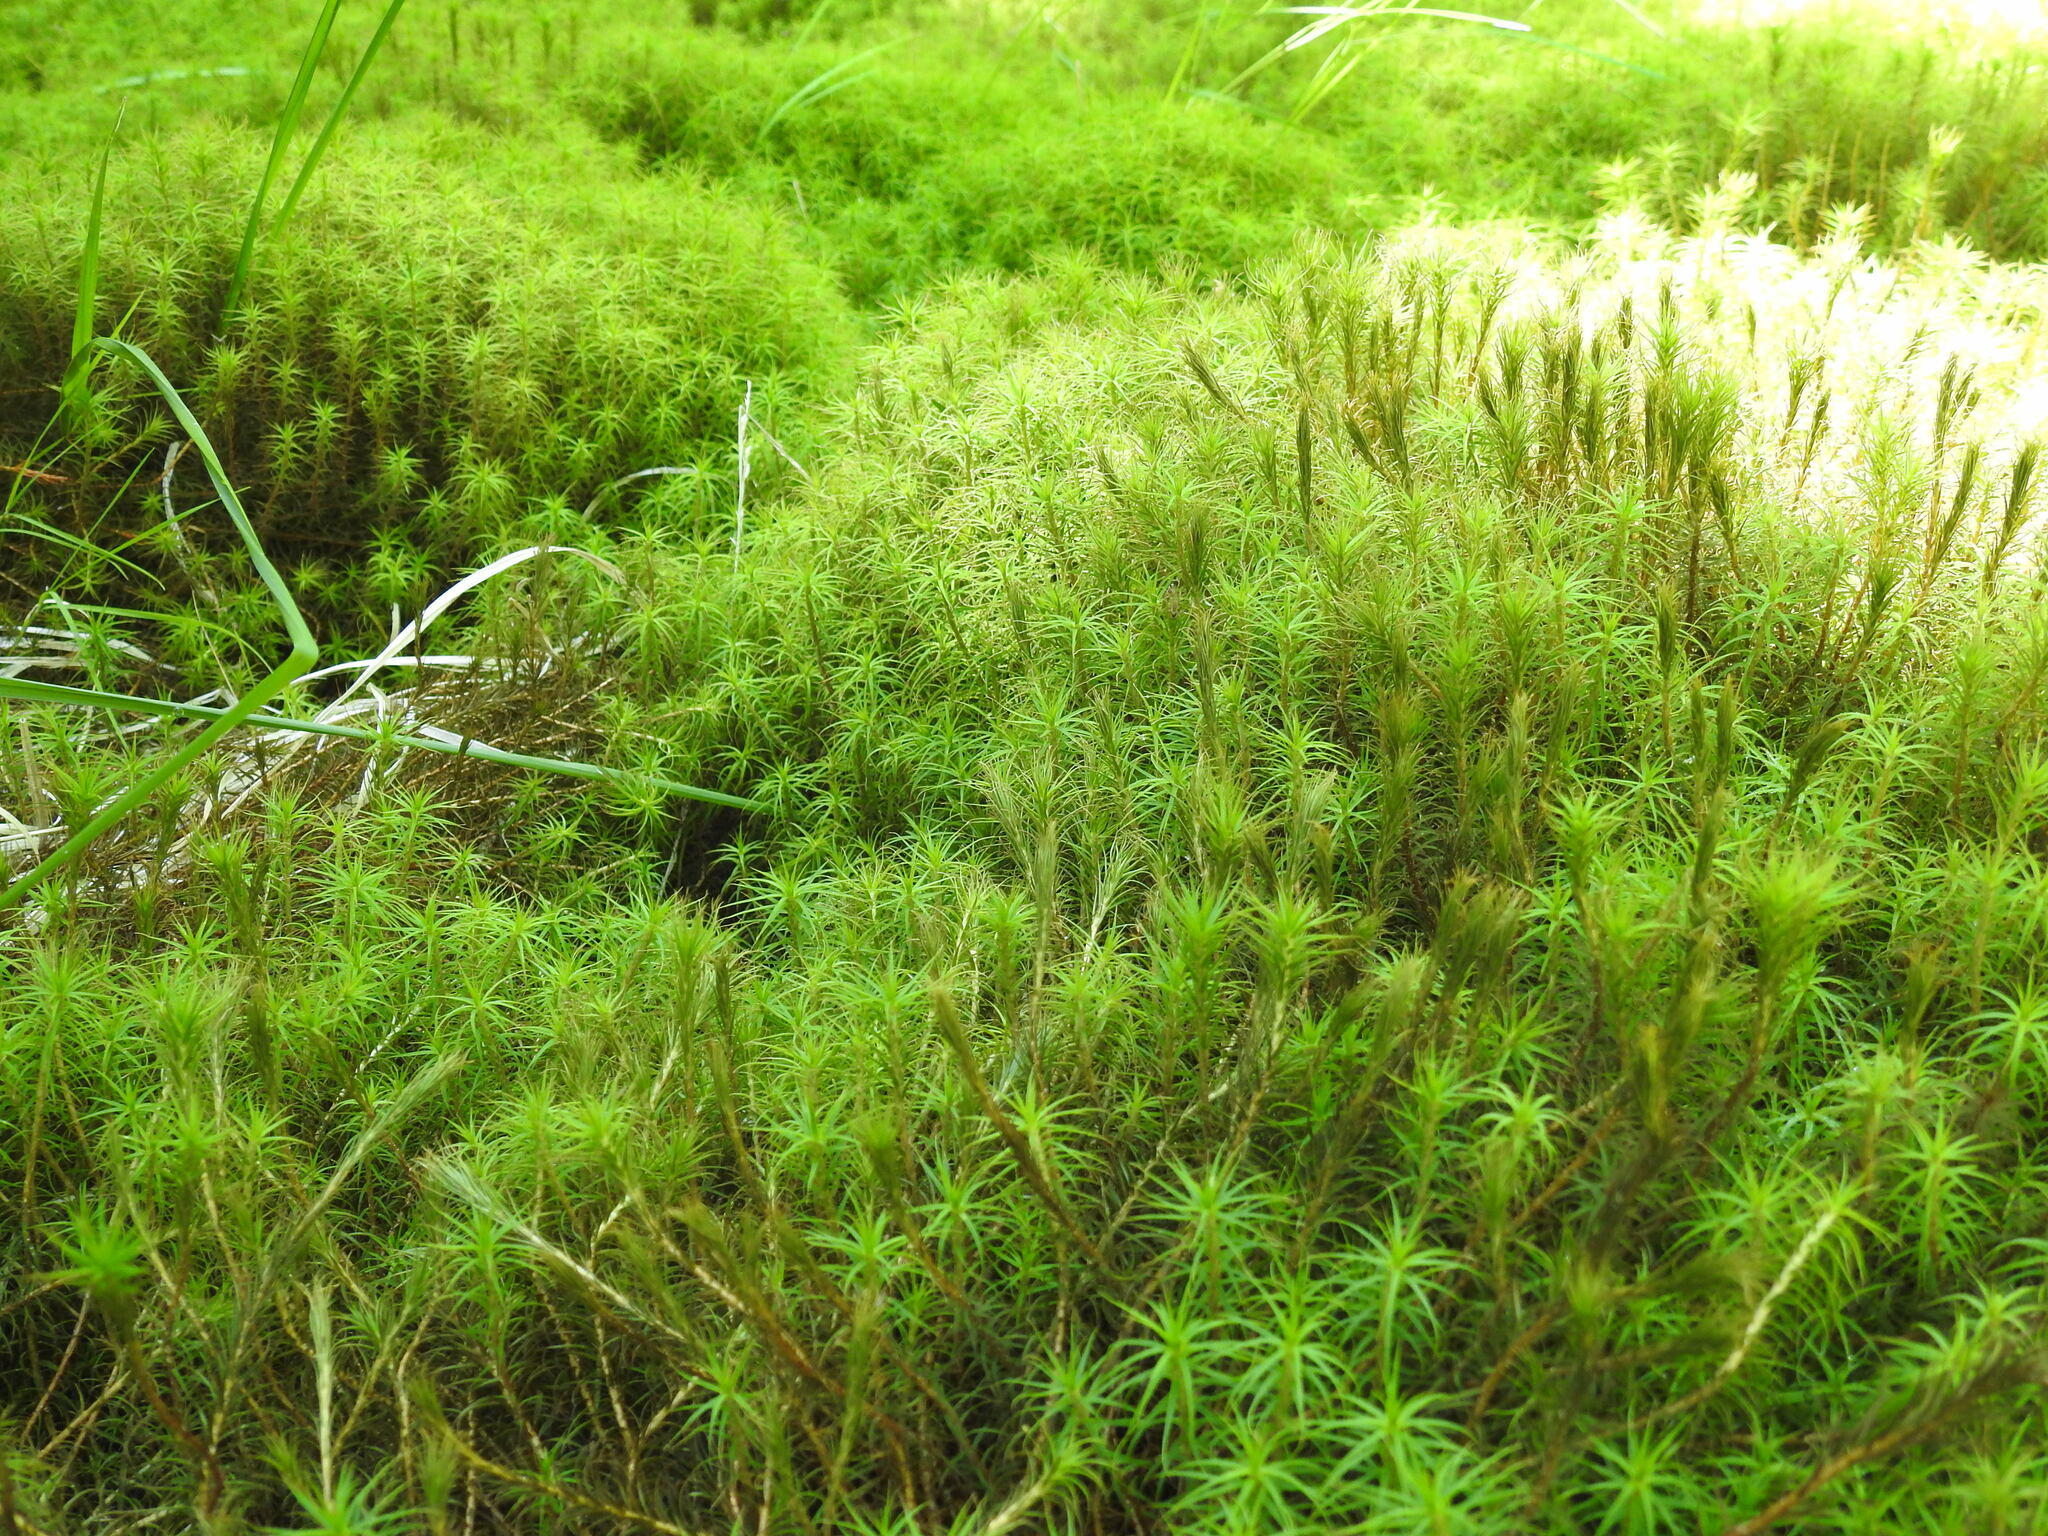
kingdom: Plantae
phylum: Bryophyta
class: Polytrichopsida
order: Polytrichales
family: Polytrichaceae
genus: Polytrichum
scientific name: Polytrichum commune
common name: Common haircap
